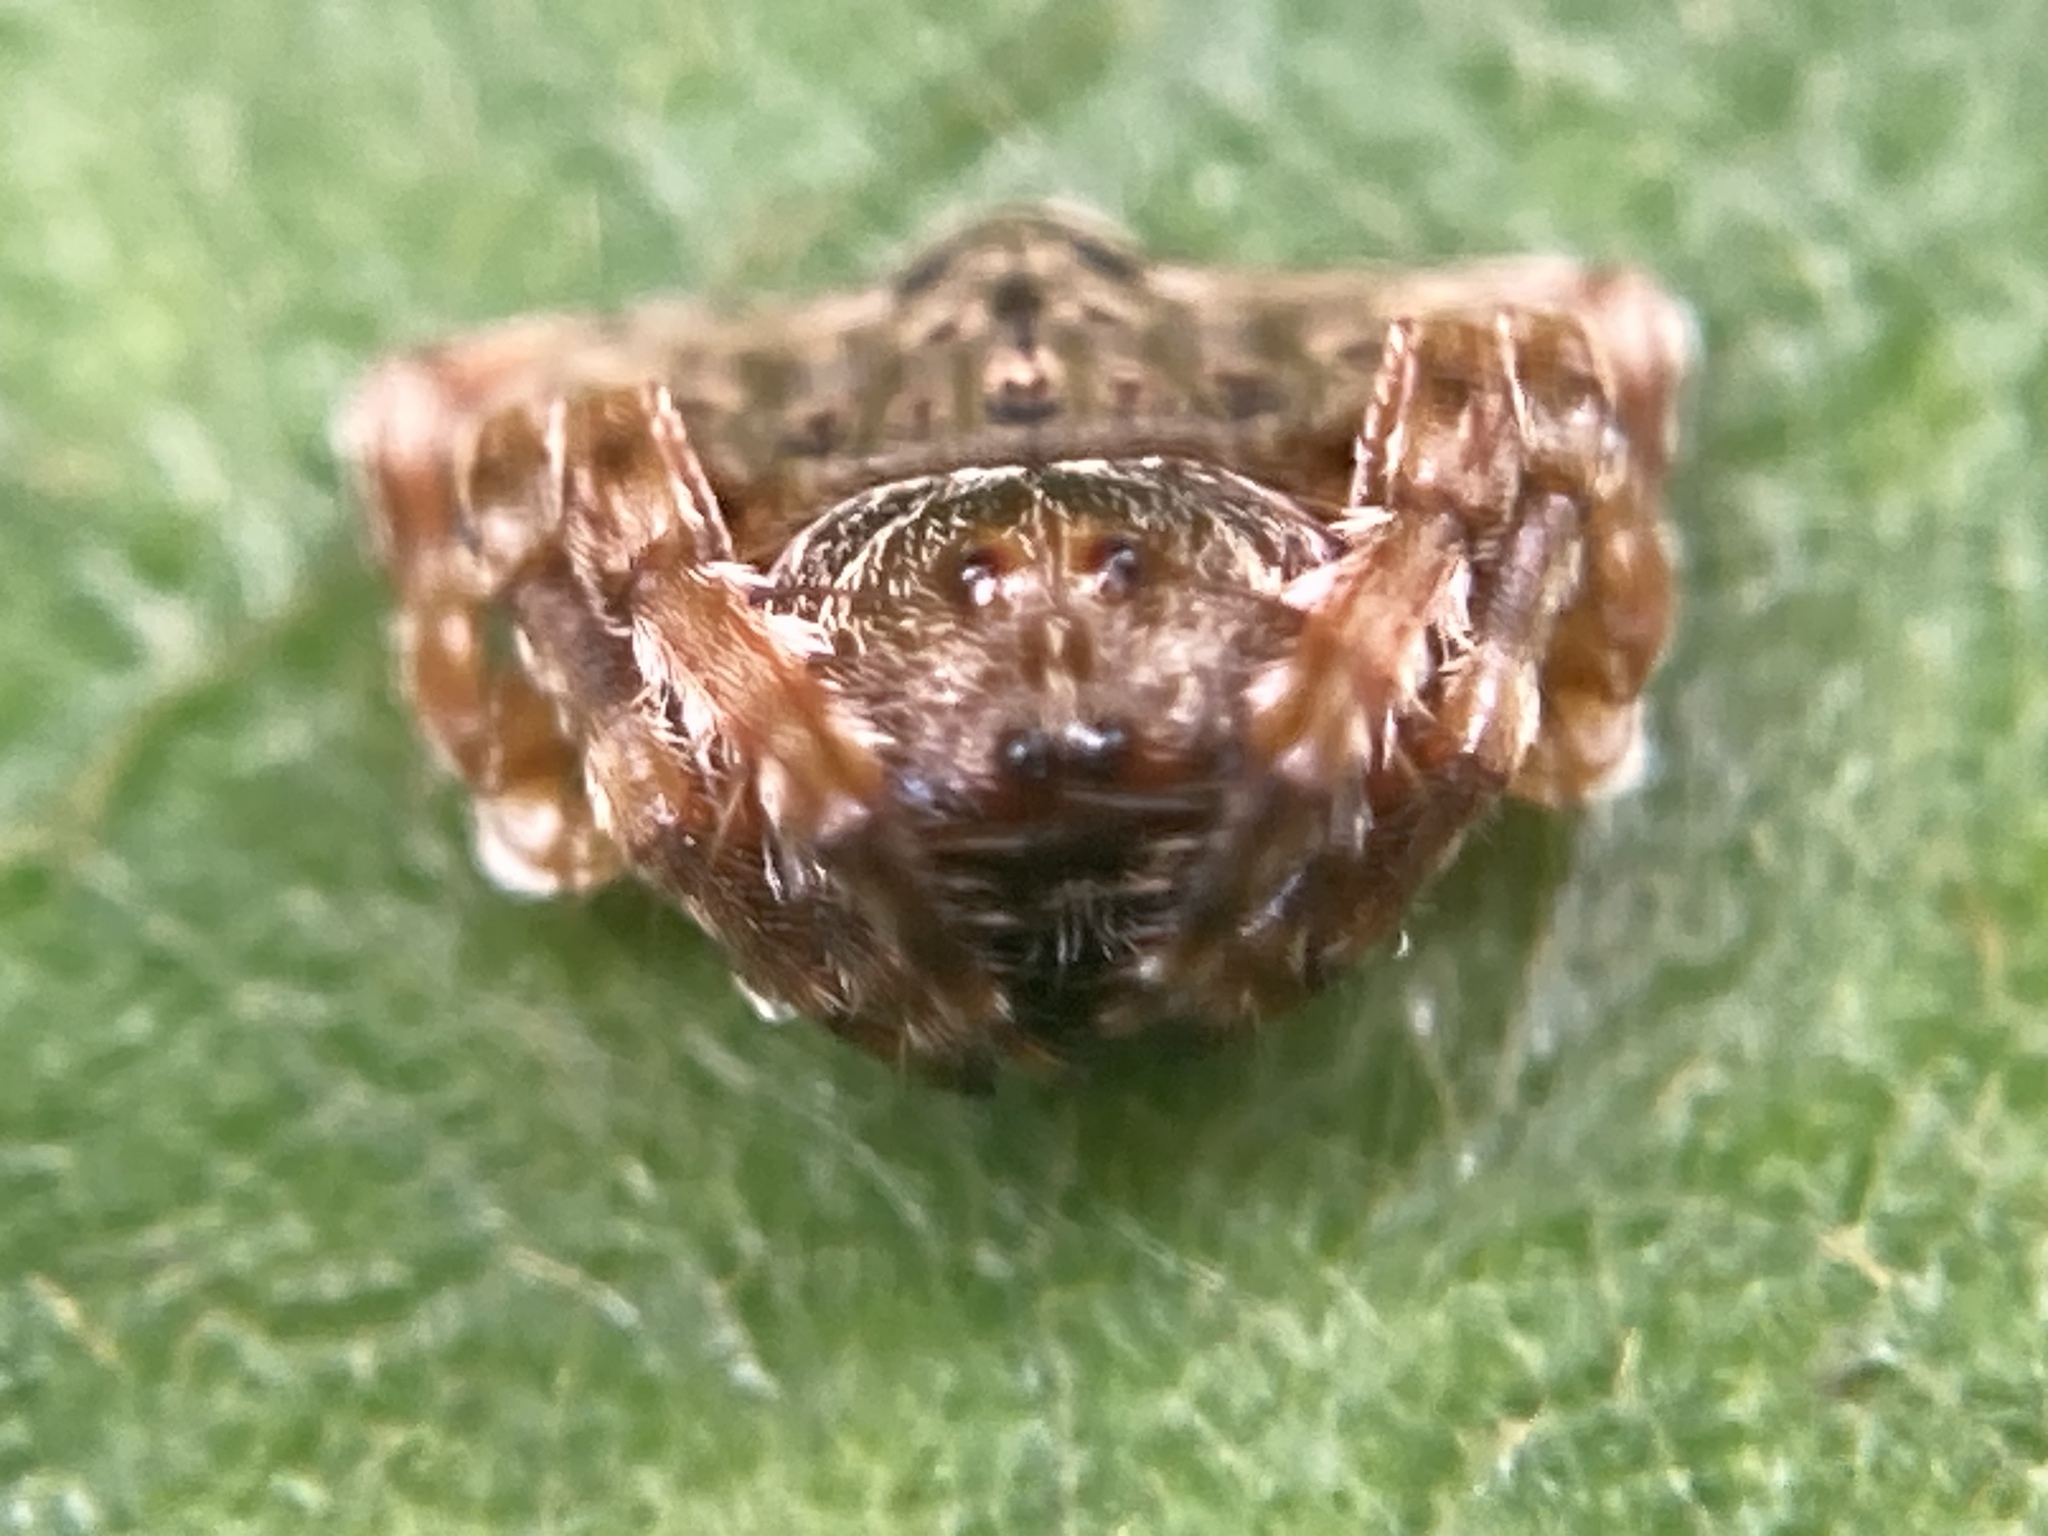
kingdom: Animalia
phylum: Arthropoda
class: Arachnida
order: Araneae
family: Arkyidae
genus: Arkys
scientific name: Arkys speechleyi
